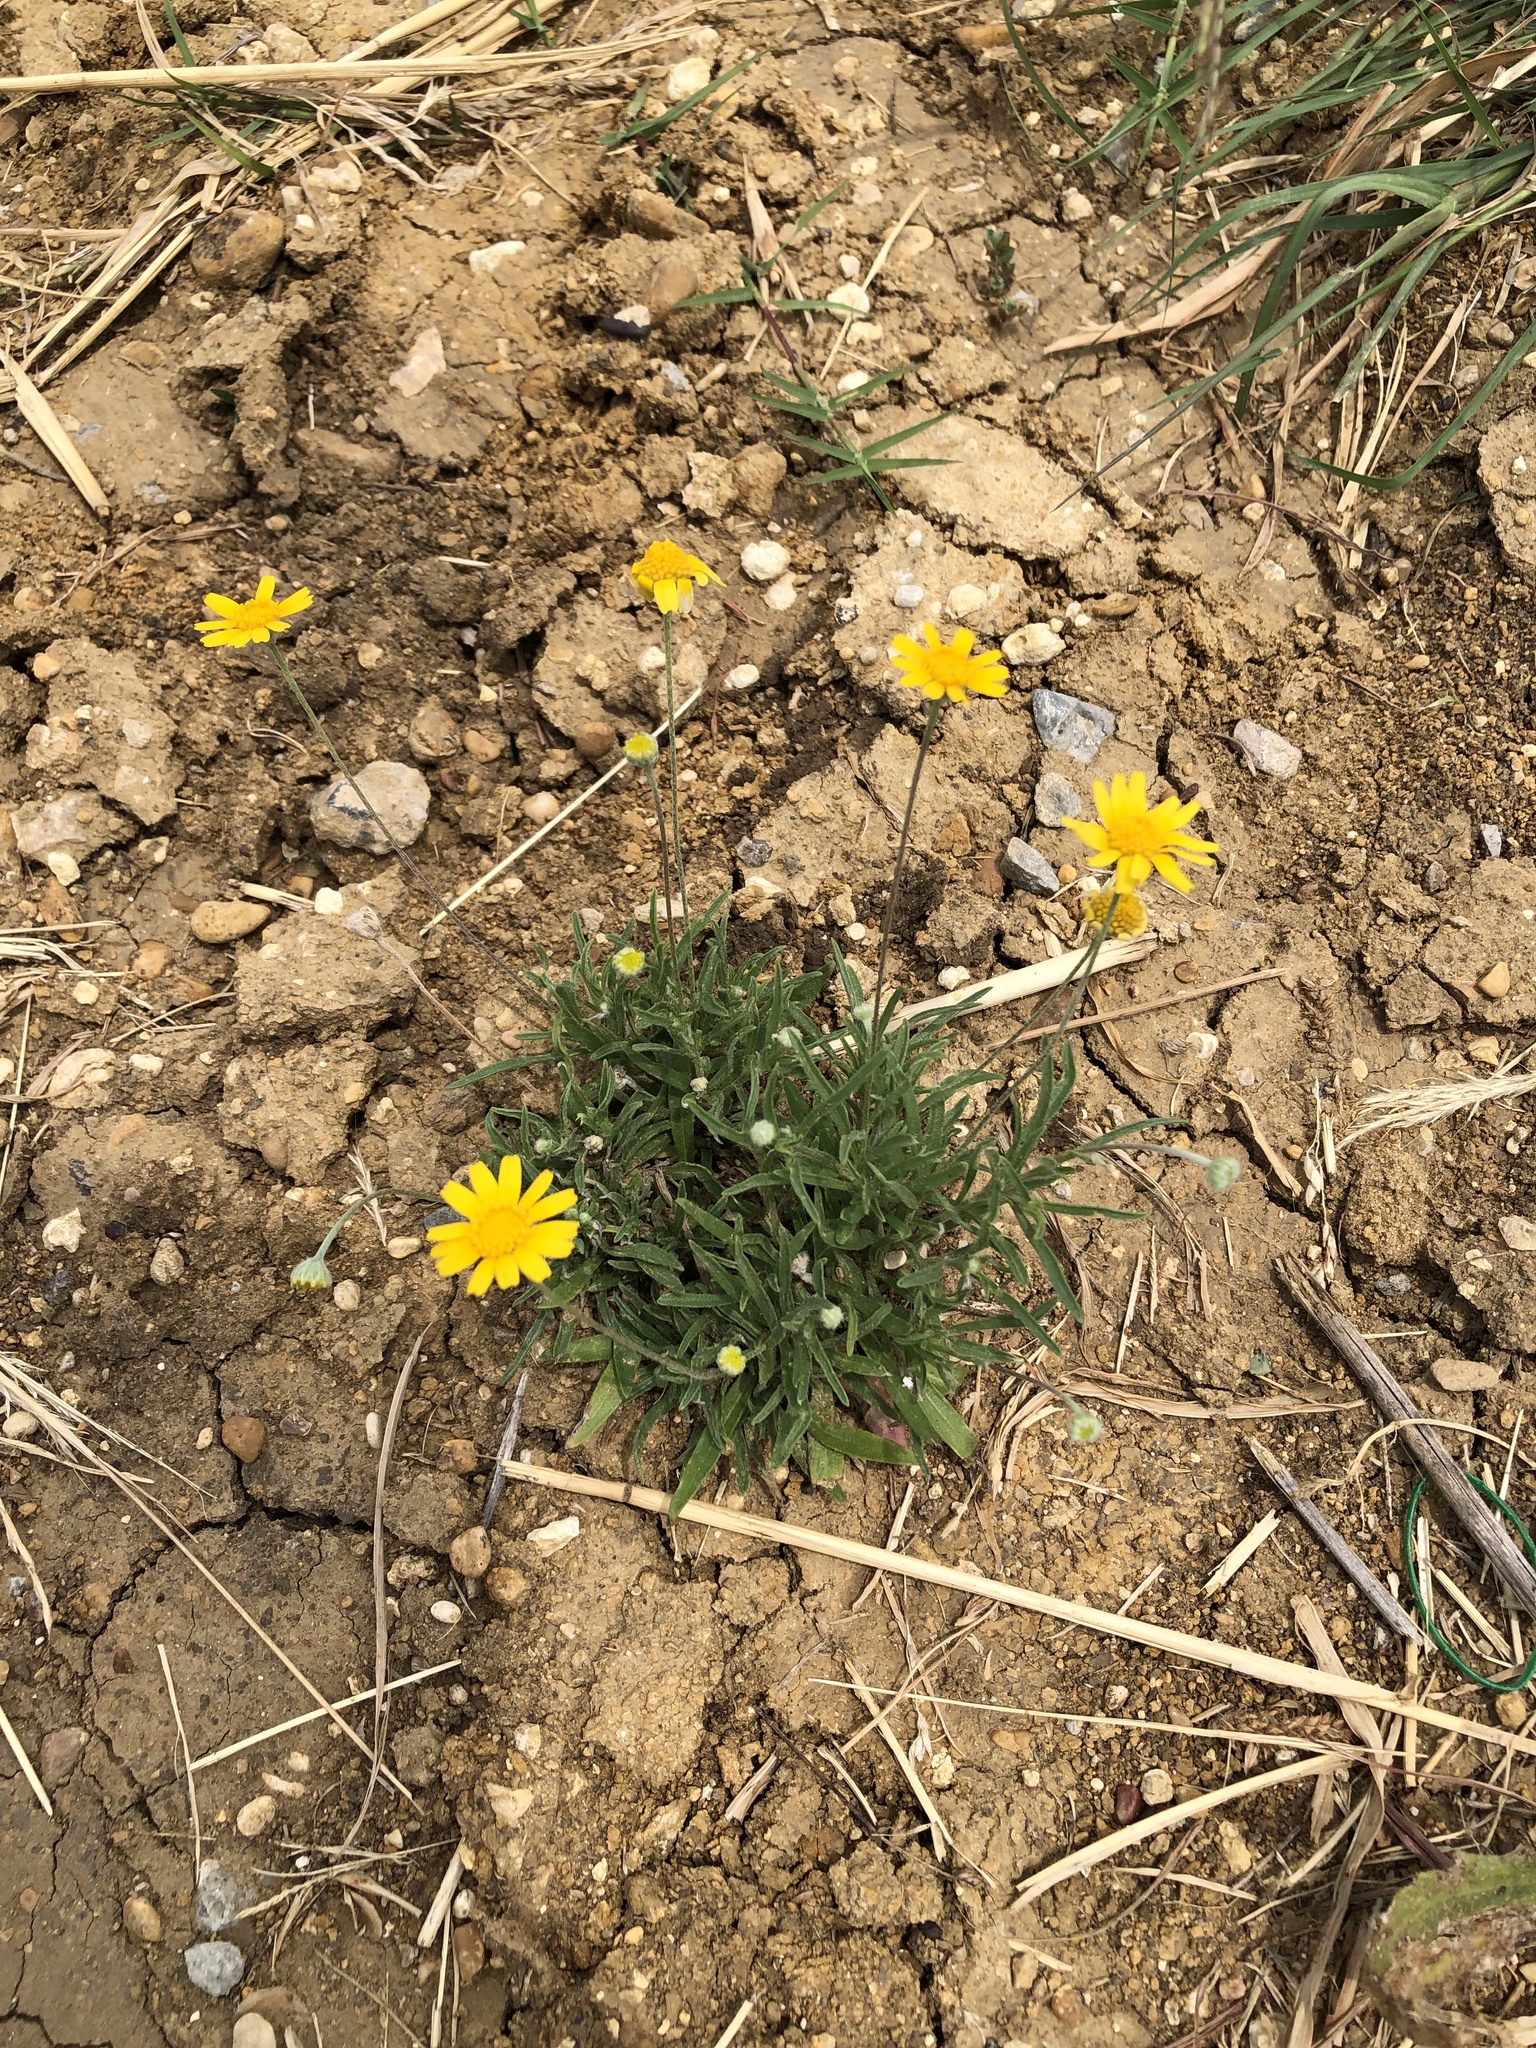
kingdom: Plantae
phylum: Tracheophyta
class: Magnoliopsida
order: Asterales
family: Asteraceae
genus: Tetraneuris
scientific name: Tetraneuris scaposa
